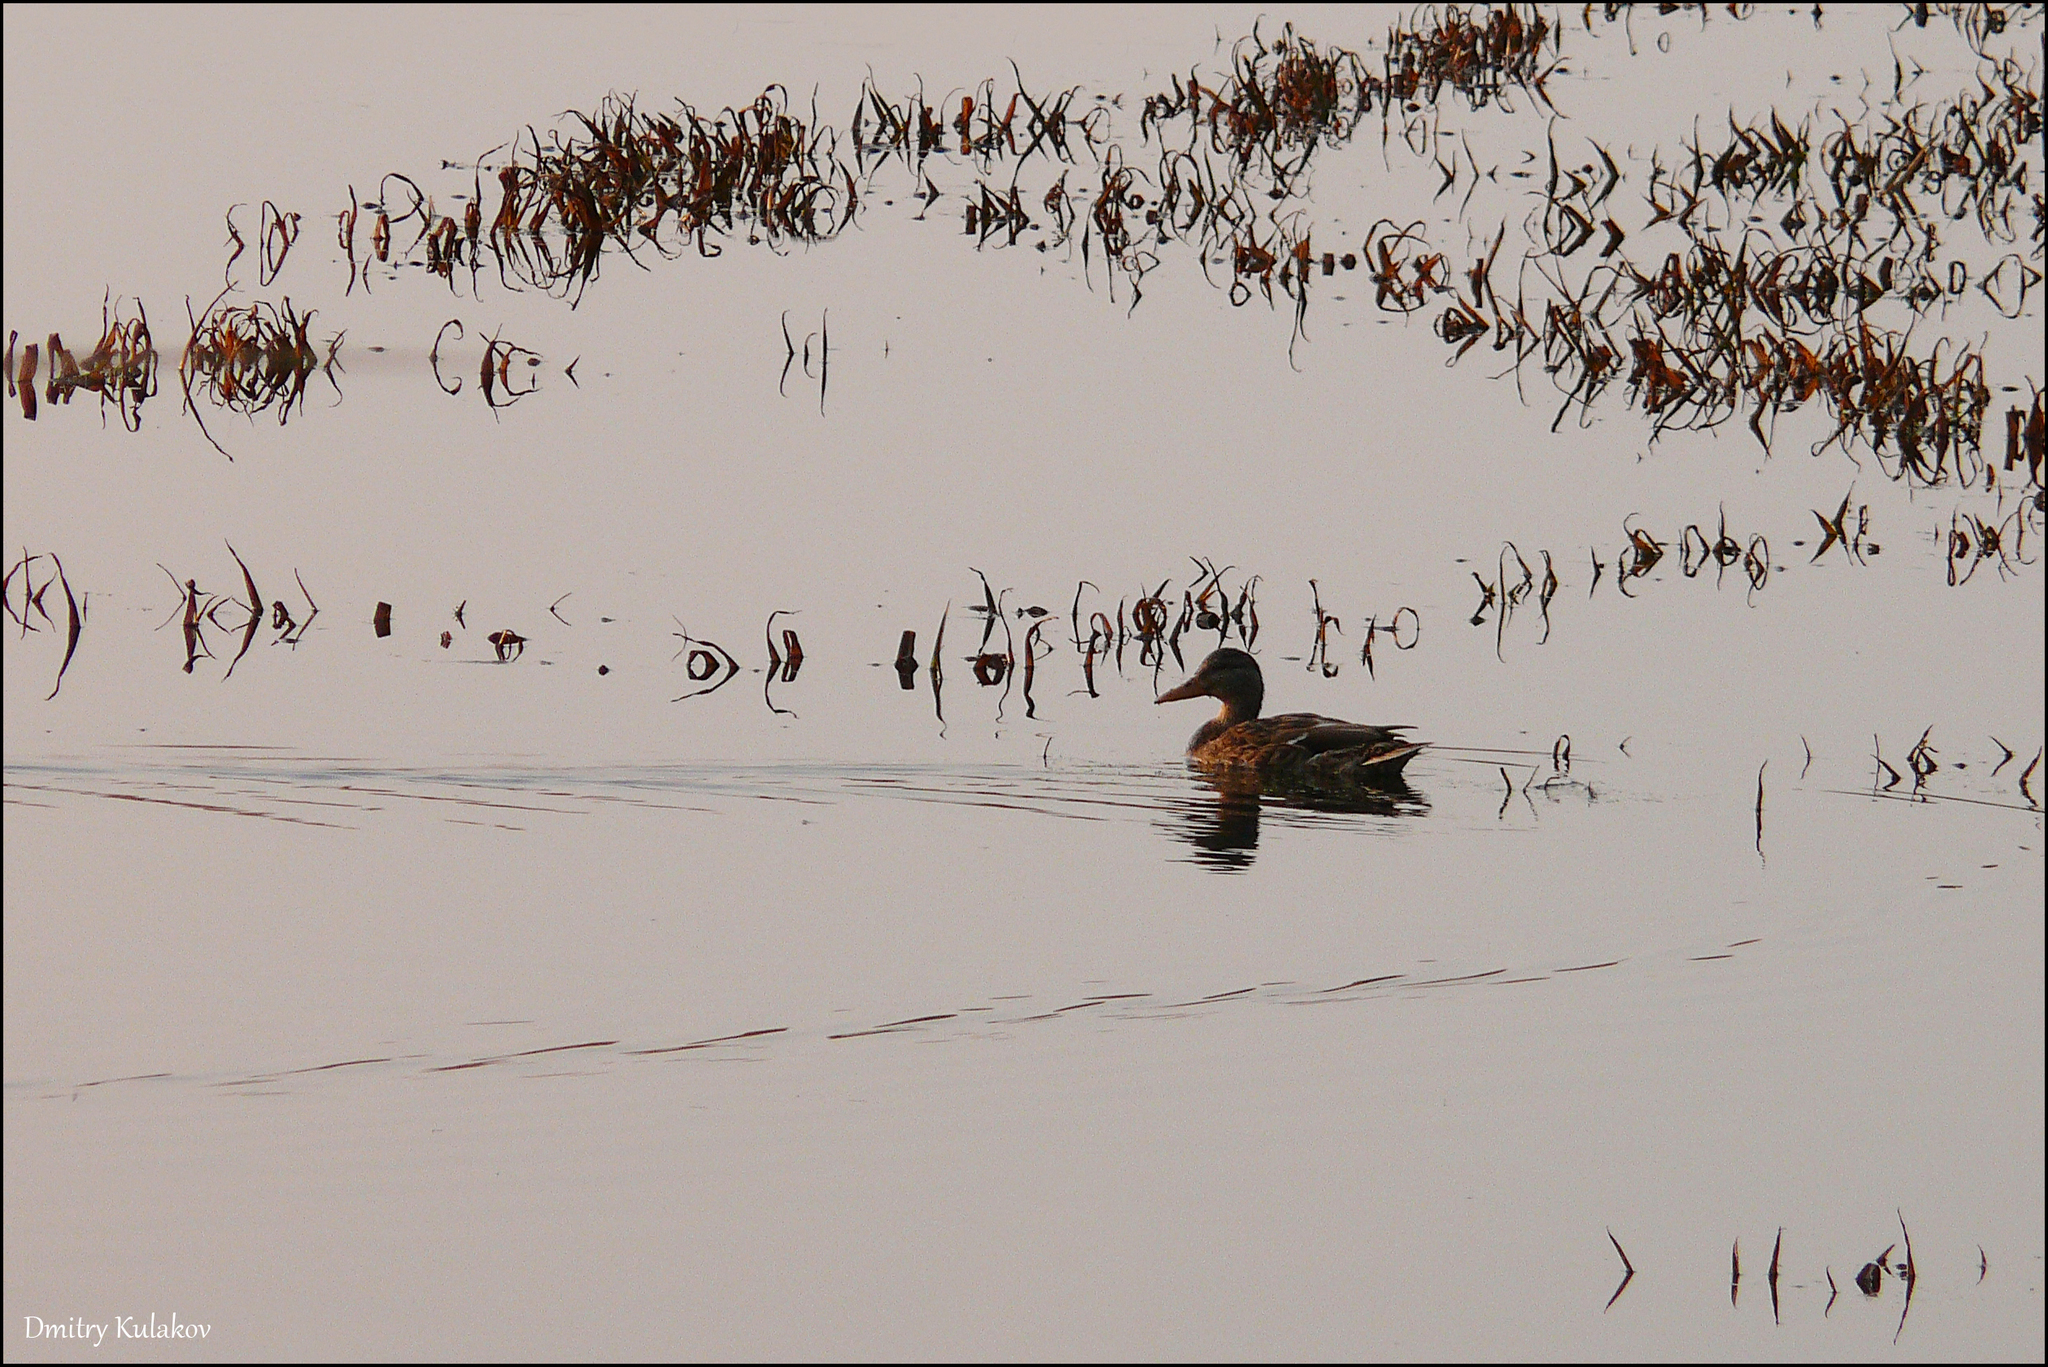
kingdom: Animalia
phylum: Chordata
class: Aves
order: Anseriformes
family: Anatidae
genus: Anas
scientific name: Anas platyrhynchos
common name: Mallard
